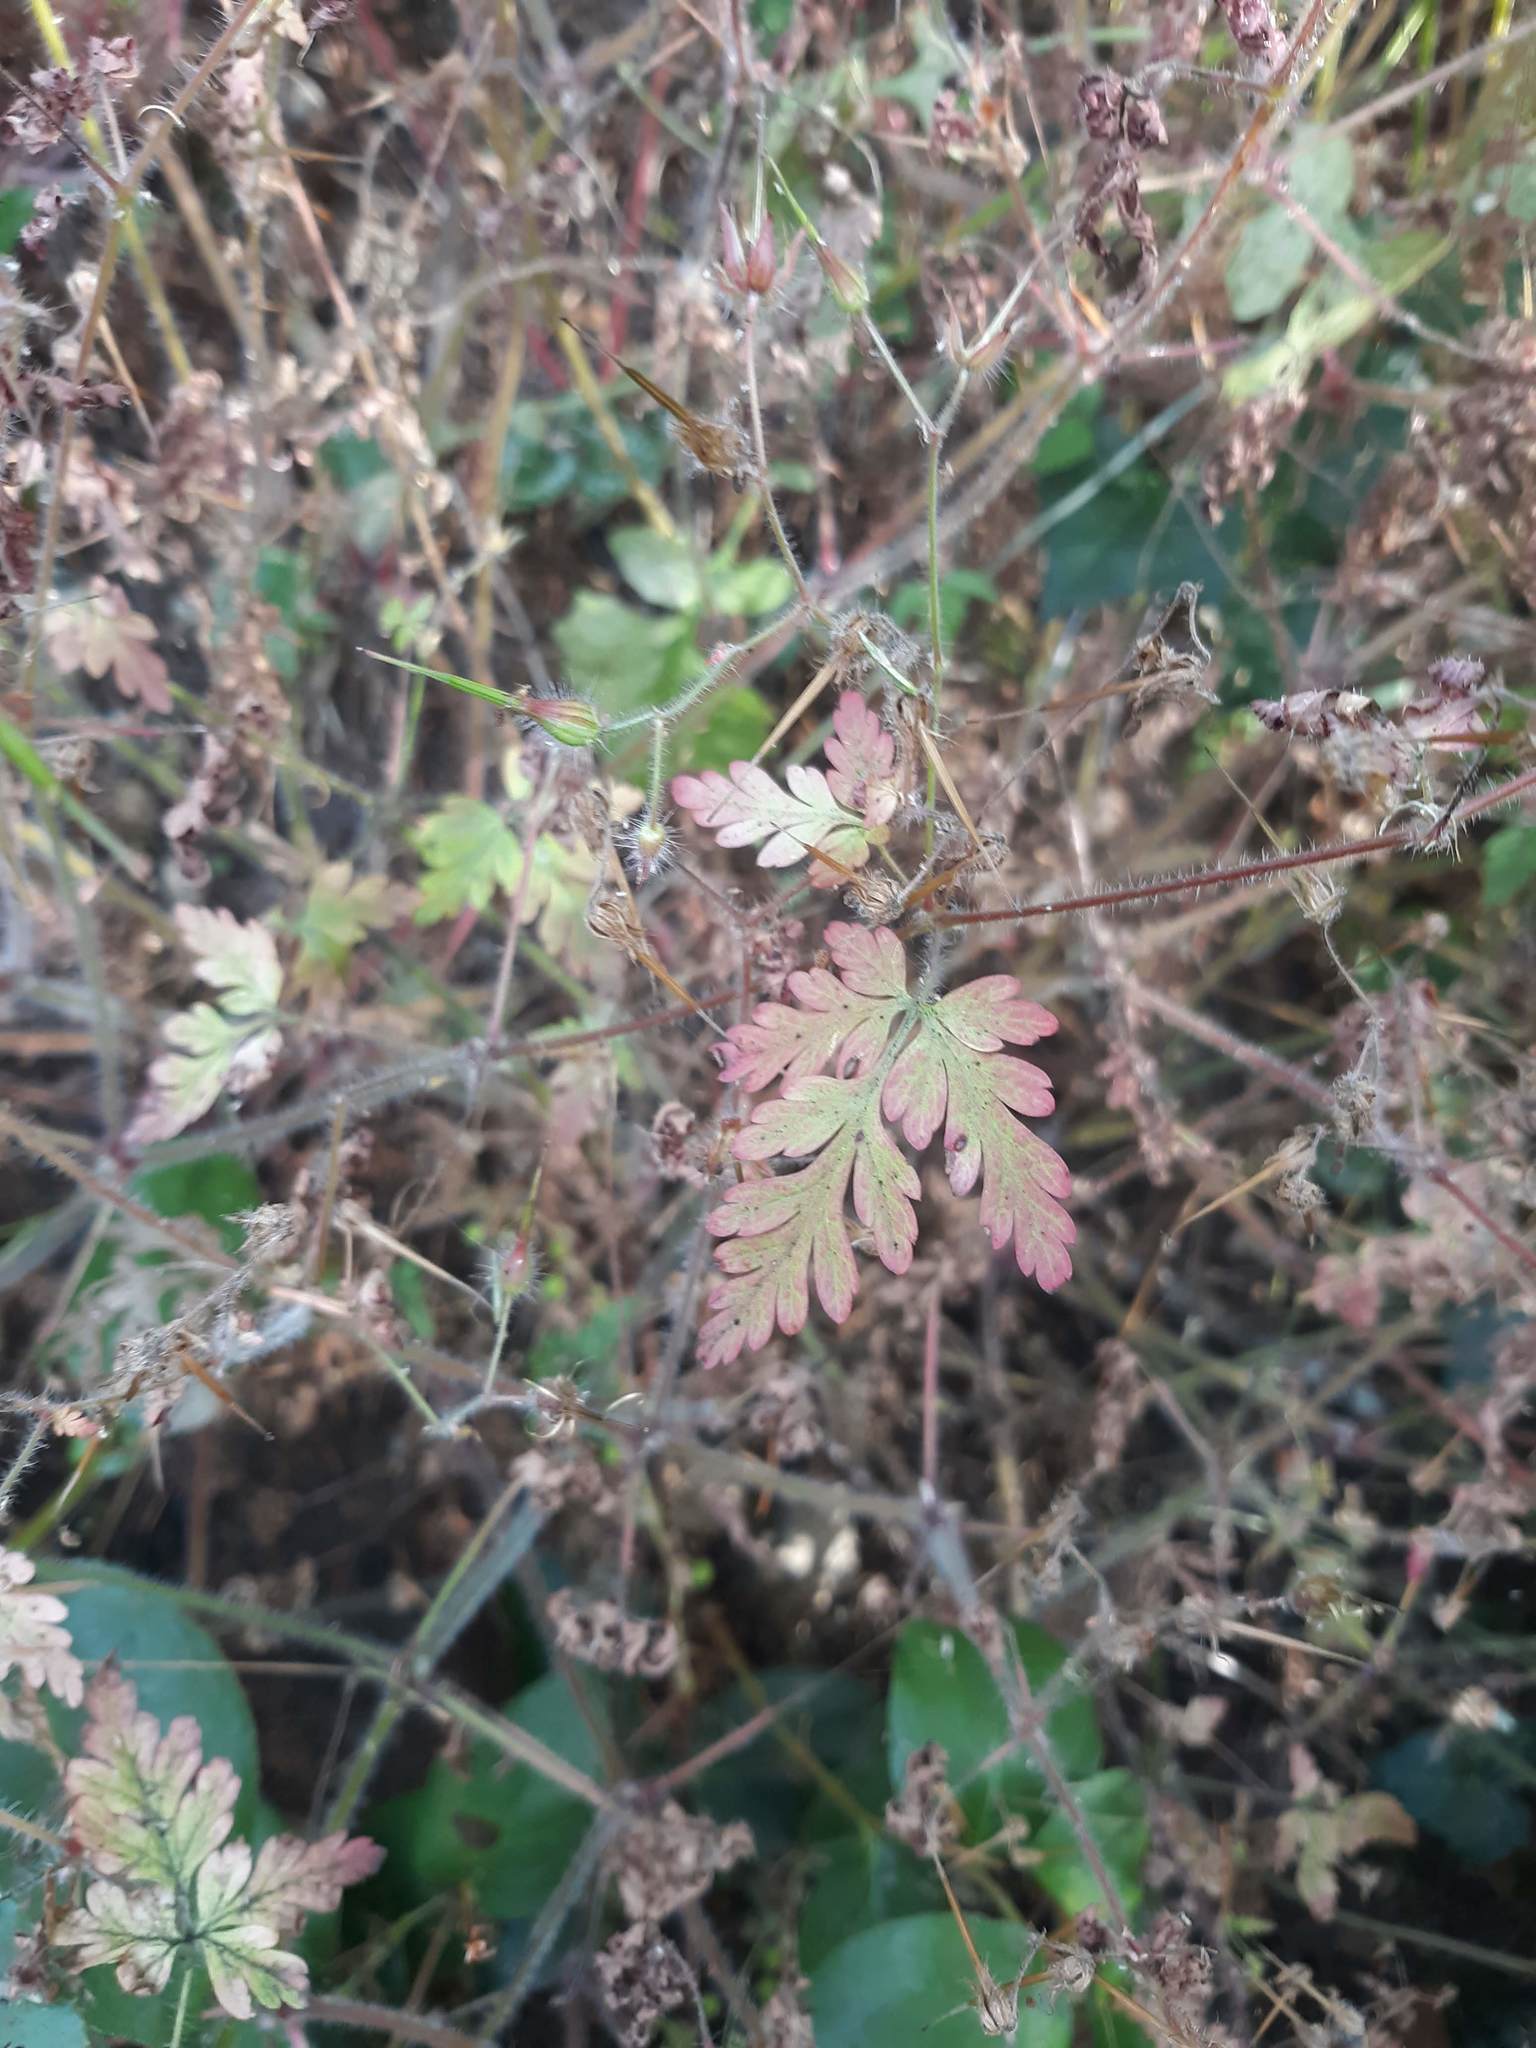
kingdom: Plantae
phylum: Tracheophyta
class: Magnoliopsida
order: Geraniales
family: Geraniaceae
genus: Geranium
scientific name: Geranium robertianum
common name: Herb-robert
